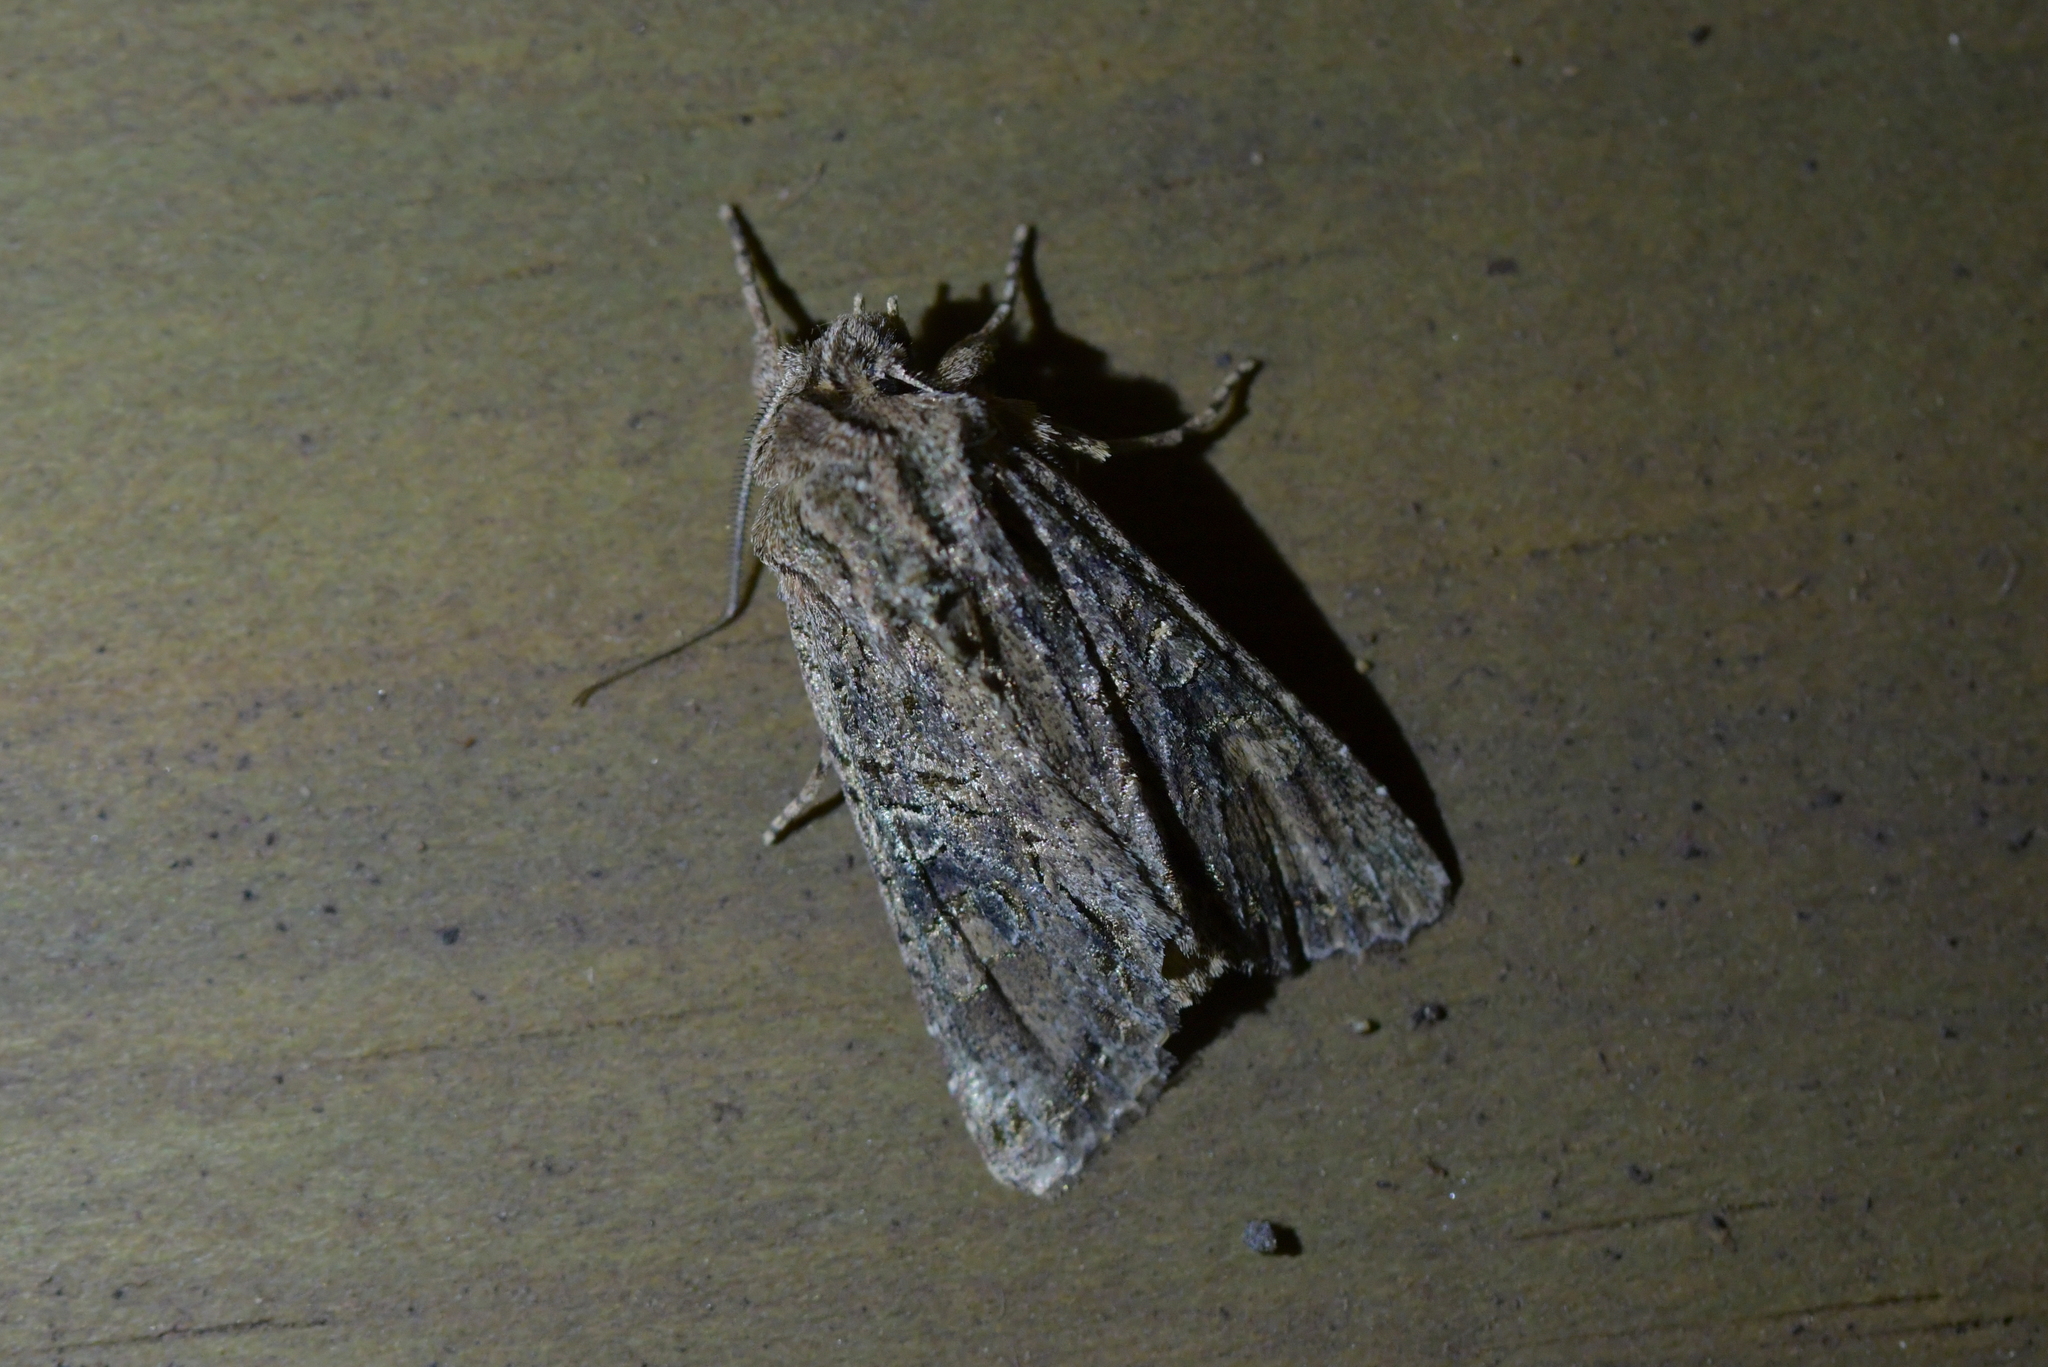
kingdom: Animalia
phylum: Arthropoda
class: Insecta
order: Lepidoptera
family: Noctuidae
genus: Ichneutica
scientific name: Ichneutica mutans
